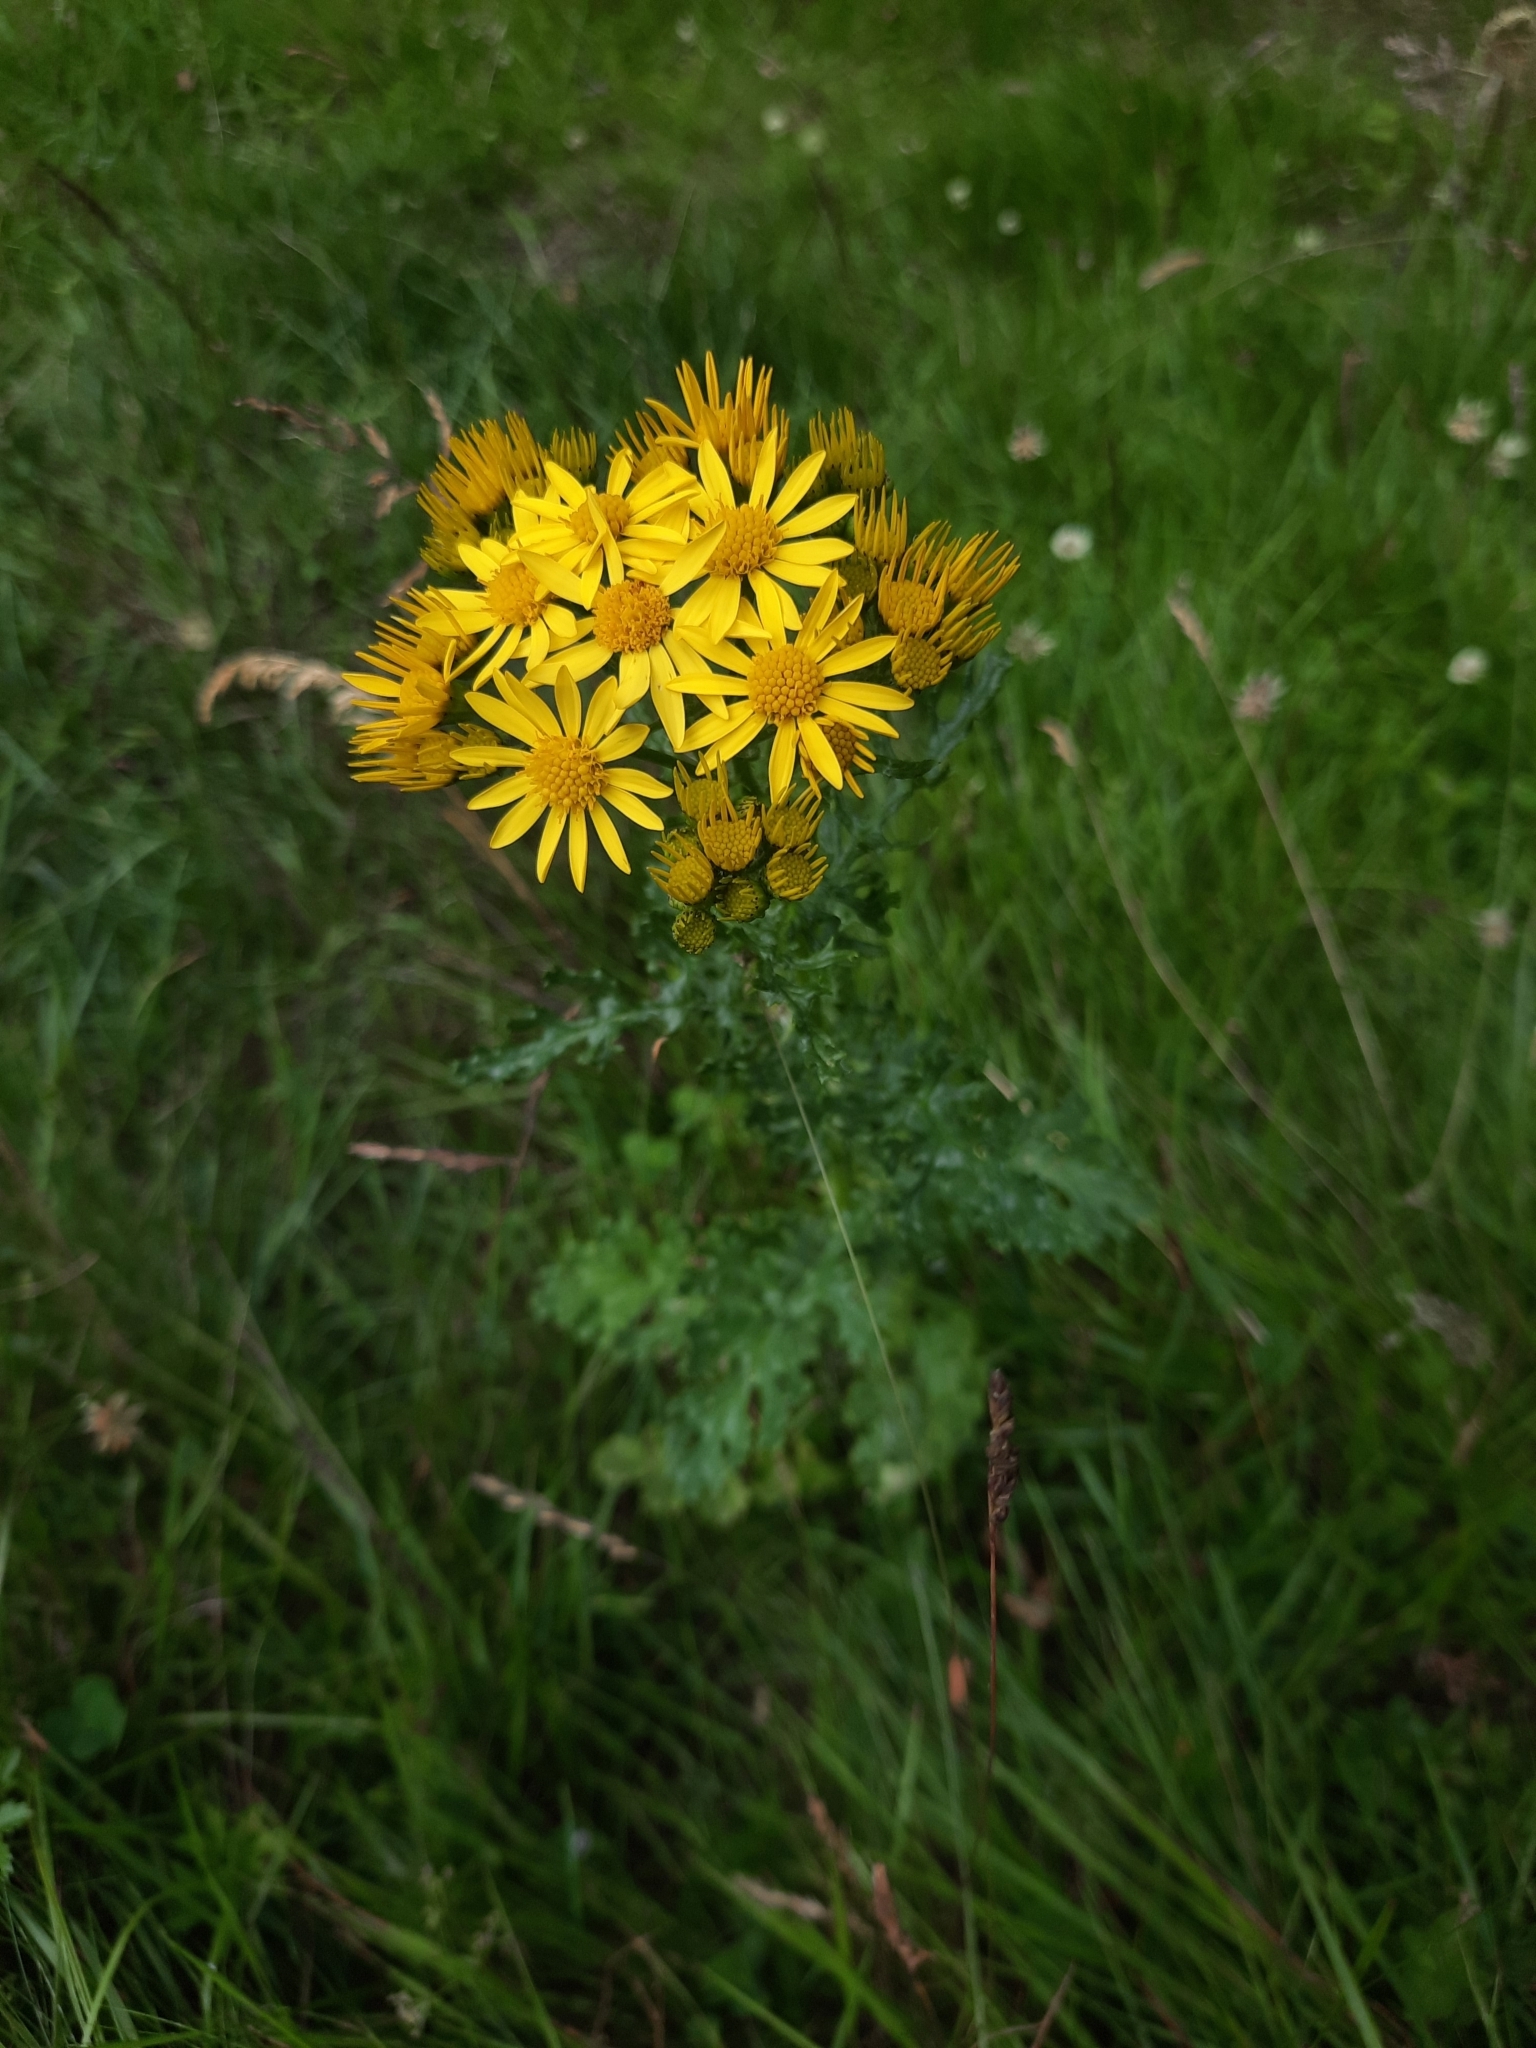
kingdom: Plantae
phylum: Tracheophyta
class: Magnoliopsida
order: Asterales
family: Asteraceae
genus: Jacobaea
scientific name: Jacobaea vulgaris
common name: Stinking willie
